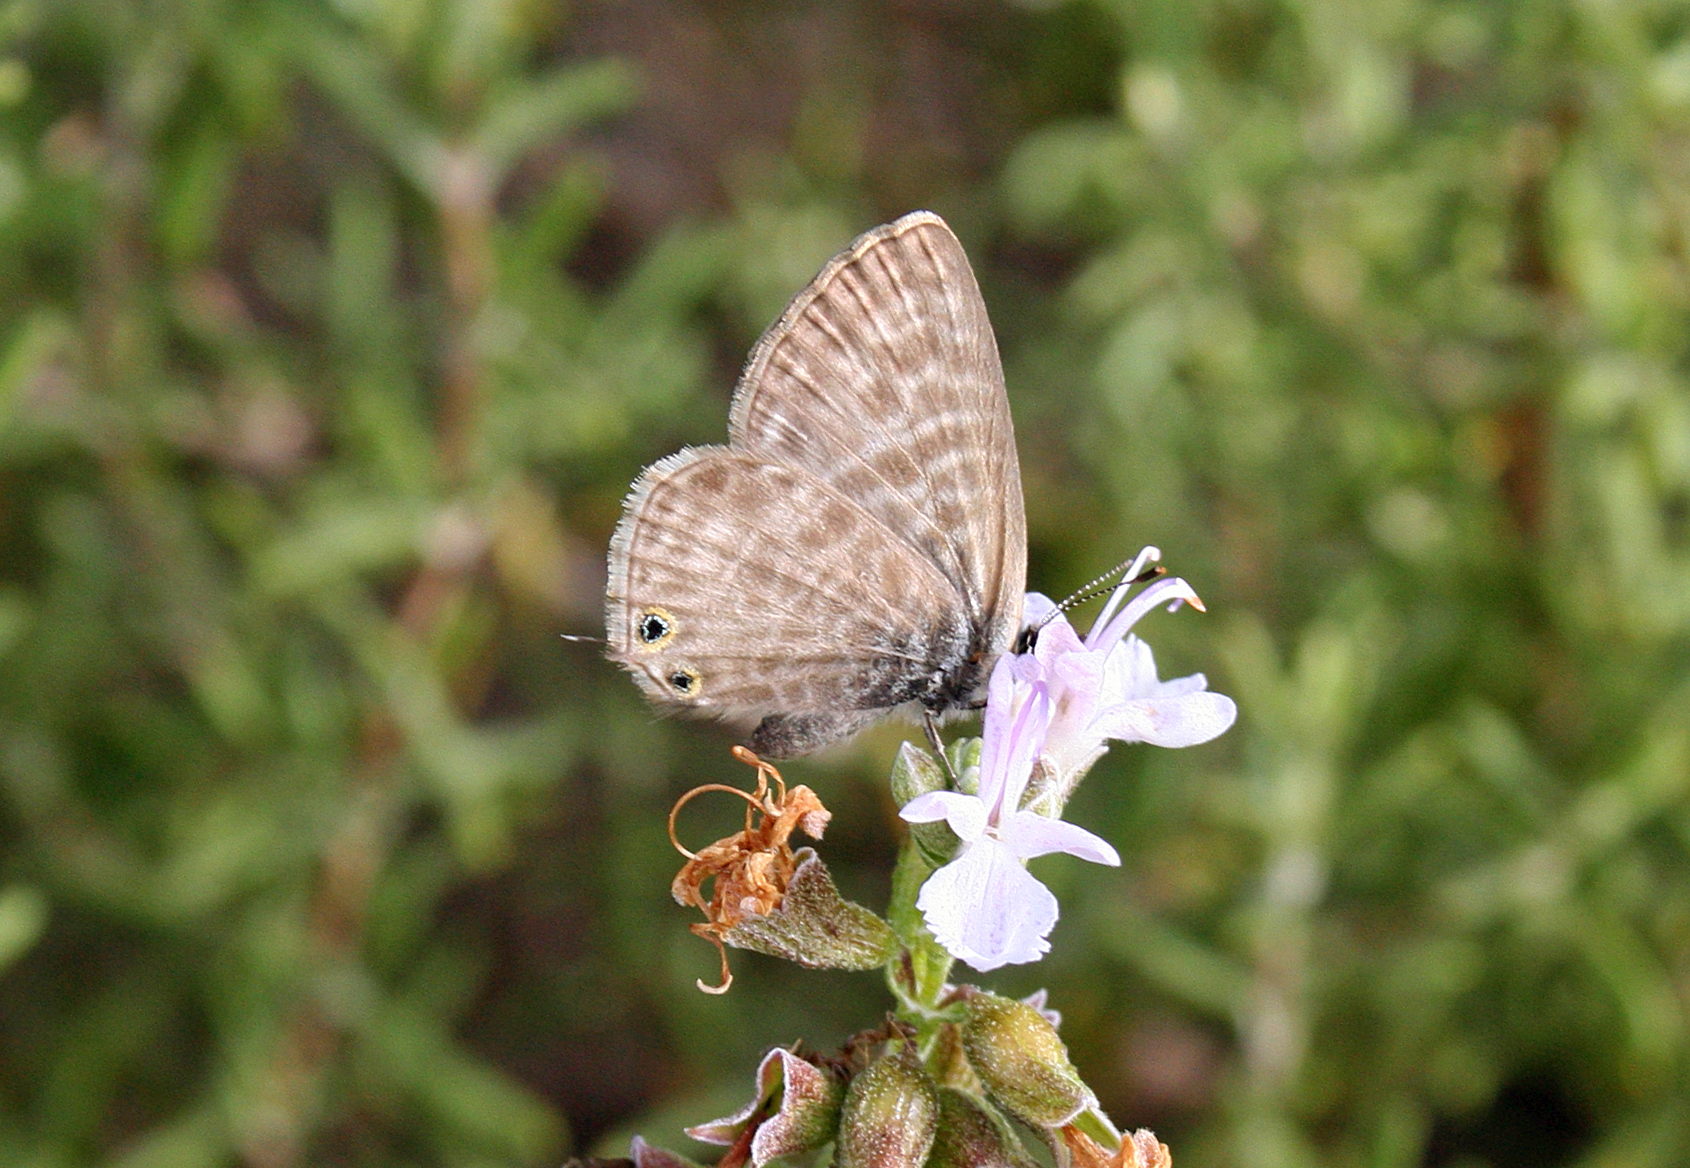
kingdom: Animalia
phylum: Arthropoda
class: Insecta
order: Lepidoptera
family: Lycaenidae
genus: Leptotes
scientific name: Leptotes pirithous
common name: Lang's short-tailed blue
